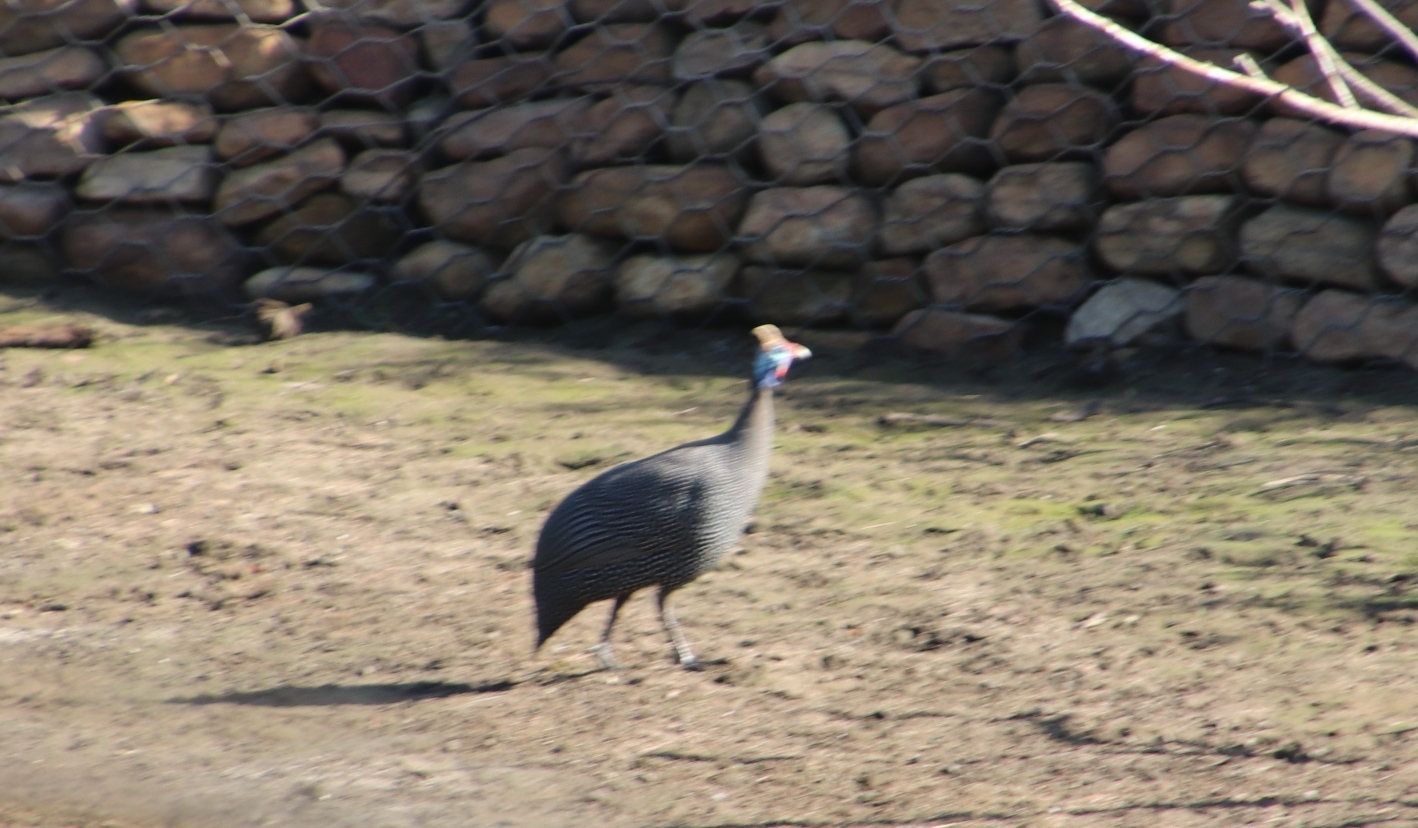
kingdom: Animalia
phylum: Chordata
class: Aves
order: Galliformes
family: Numididae
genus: Numida
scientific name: Numida meleagris
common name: Helmeted guineafowl
